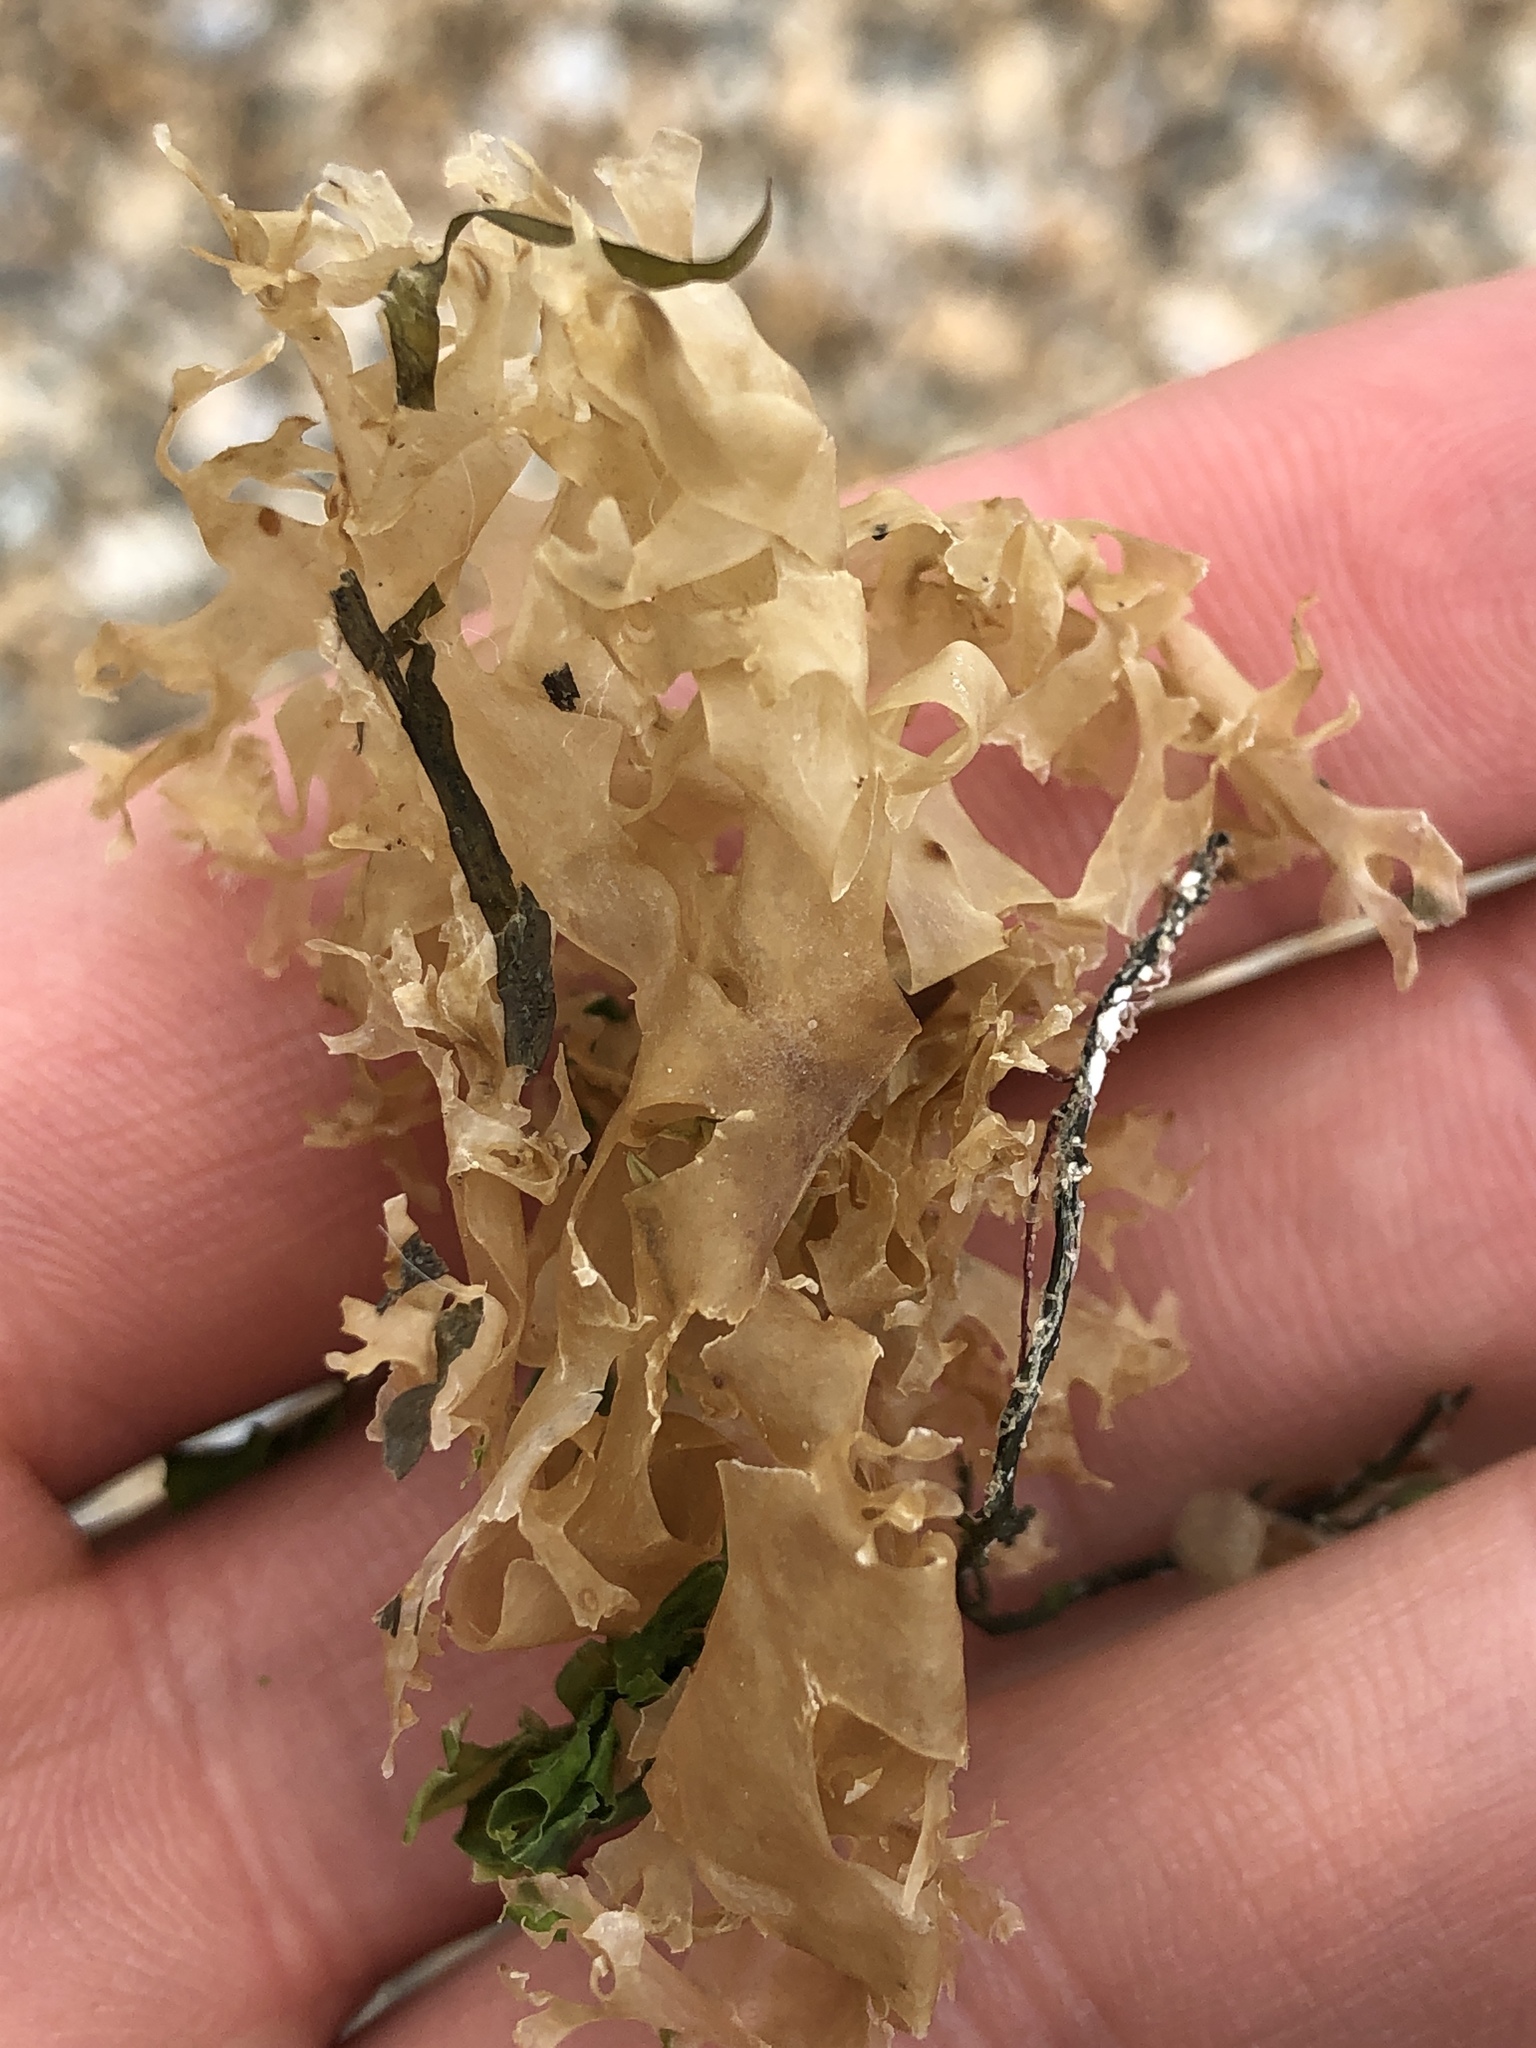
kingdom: Plantae
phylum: Rhodophyta
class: Florideophyceae
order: Gigartinales
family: Gigartinaceae
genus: Chondrus
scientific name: Chondrus crispus
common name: Carrageen
